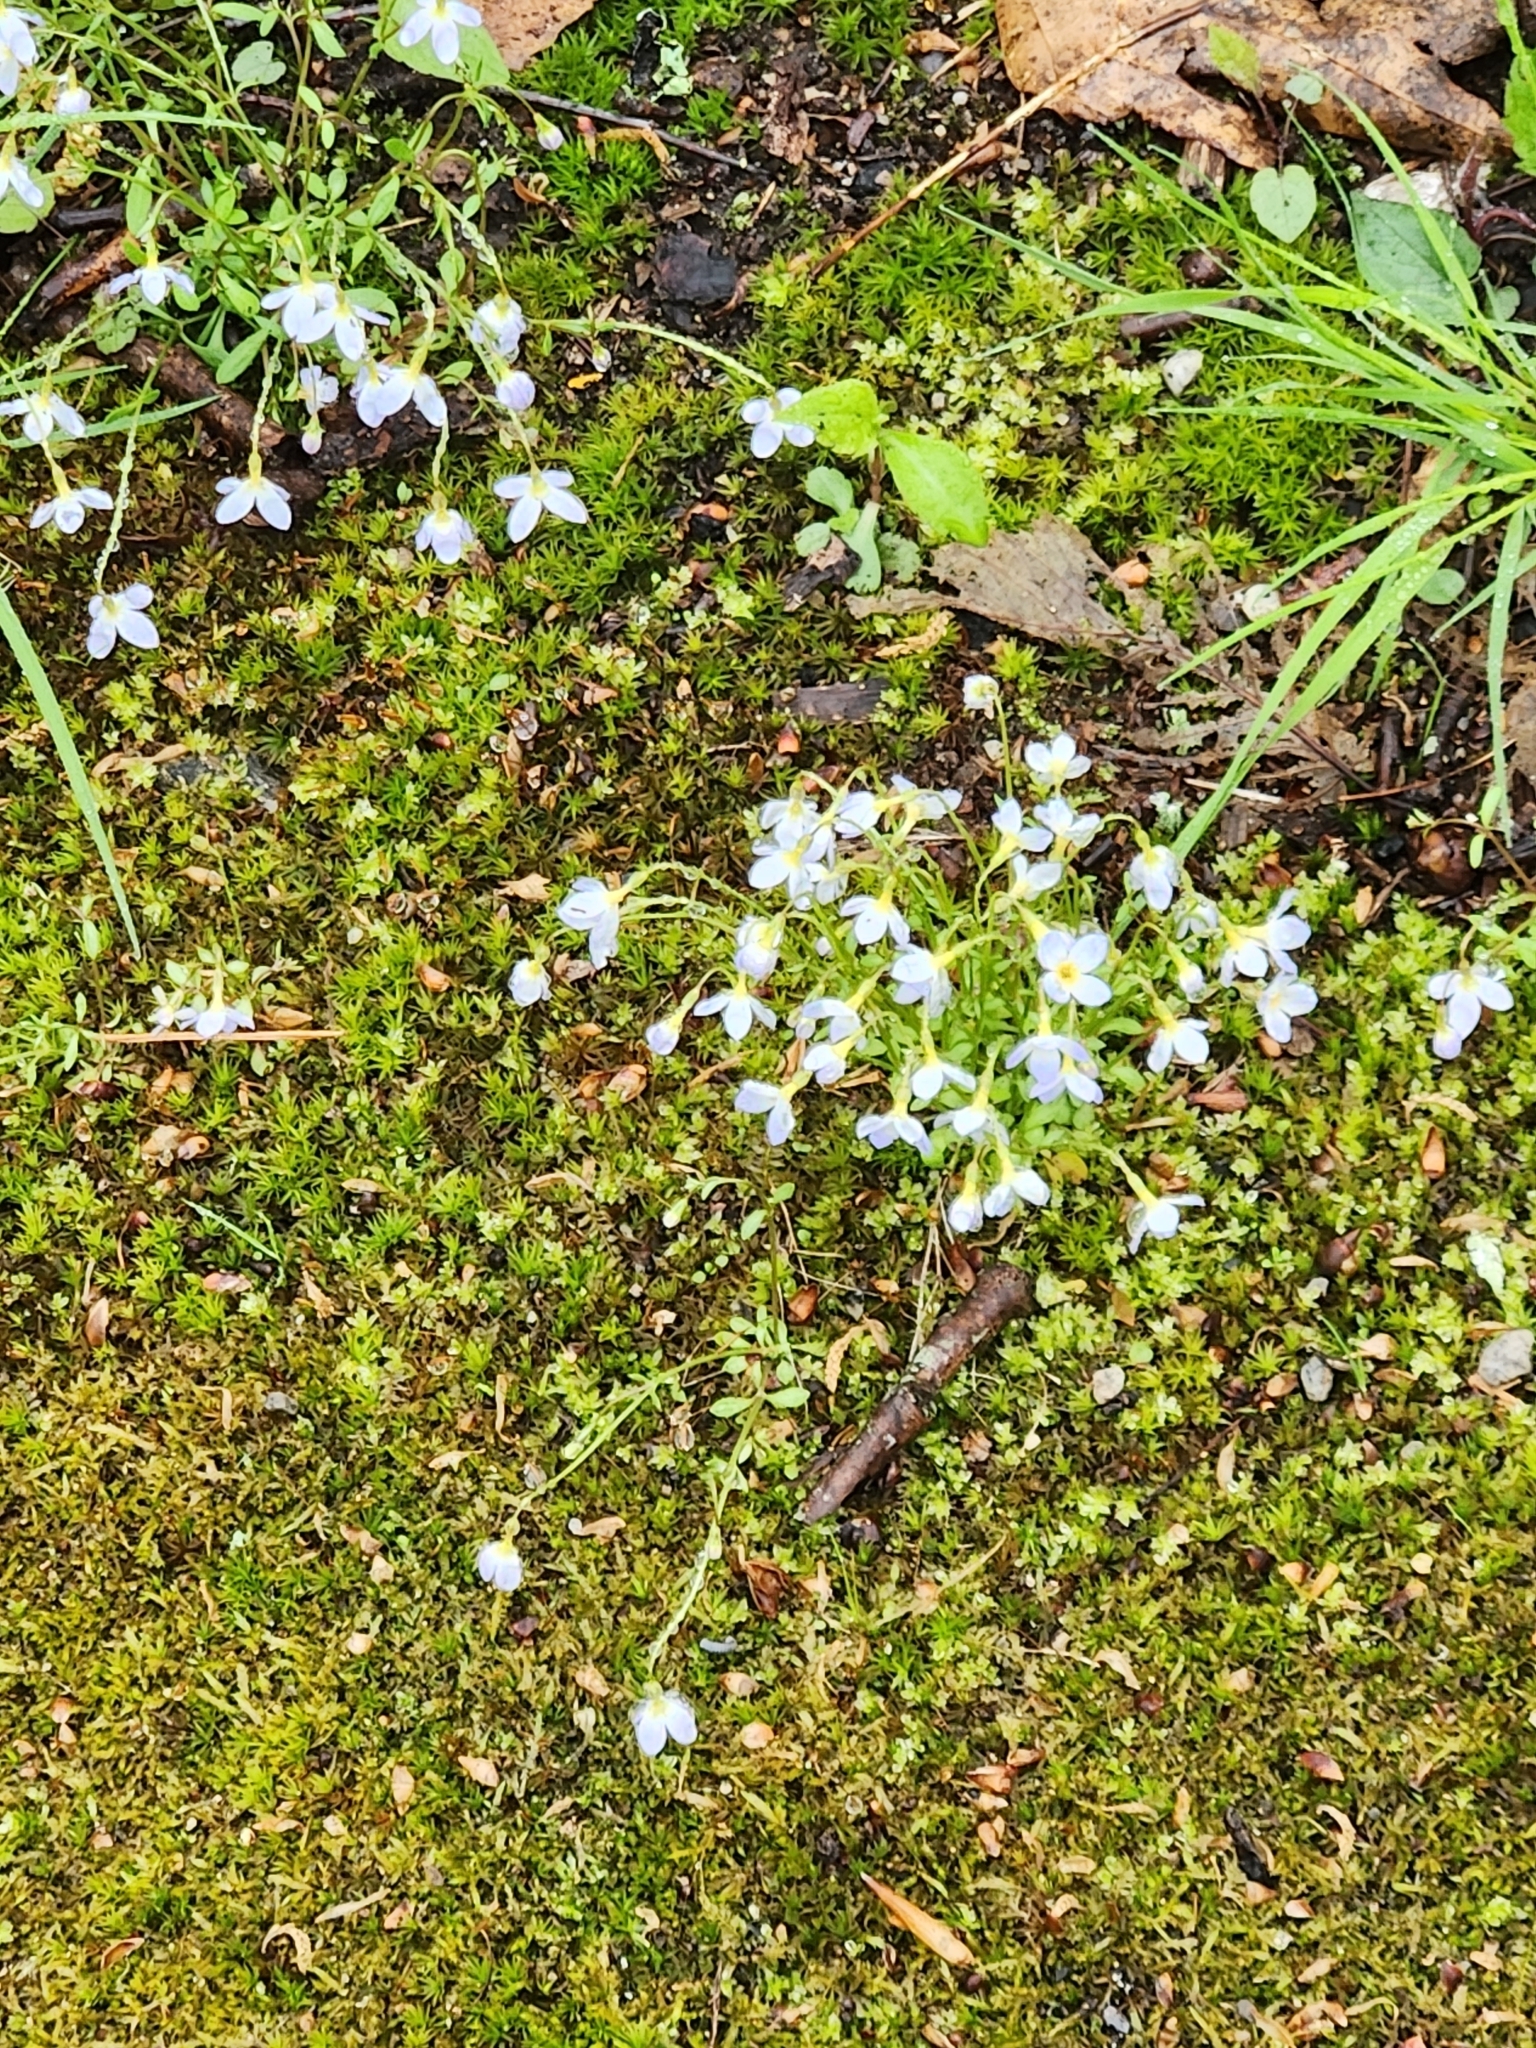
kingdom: Plantae
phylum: Tracheophyta
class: Magnoliopsida
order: Gentianales
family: Rubiaceae
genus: Houstonia
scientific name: Houstonia caerulea
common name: Bluets
